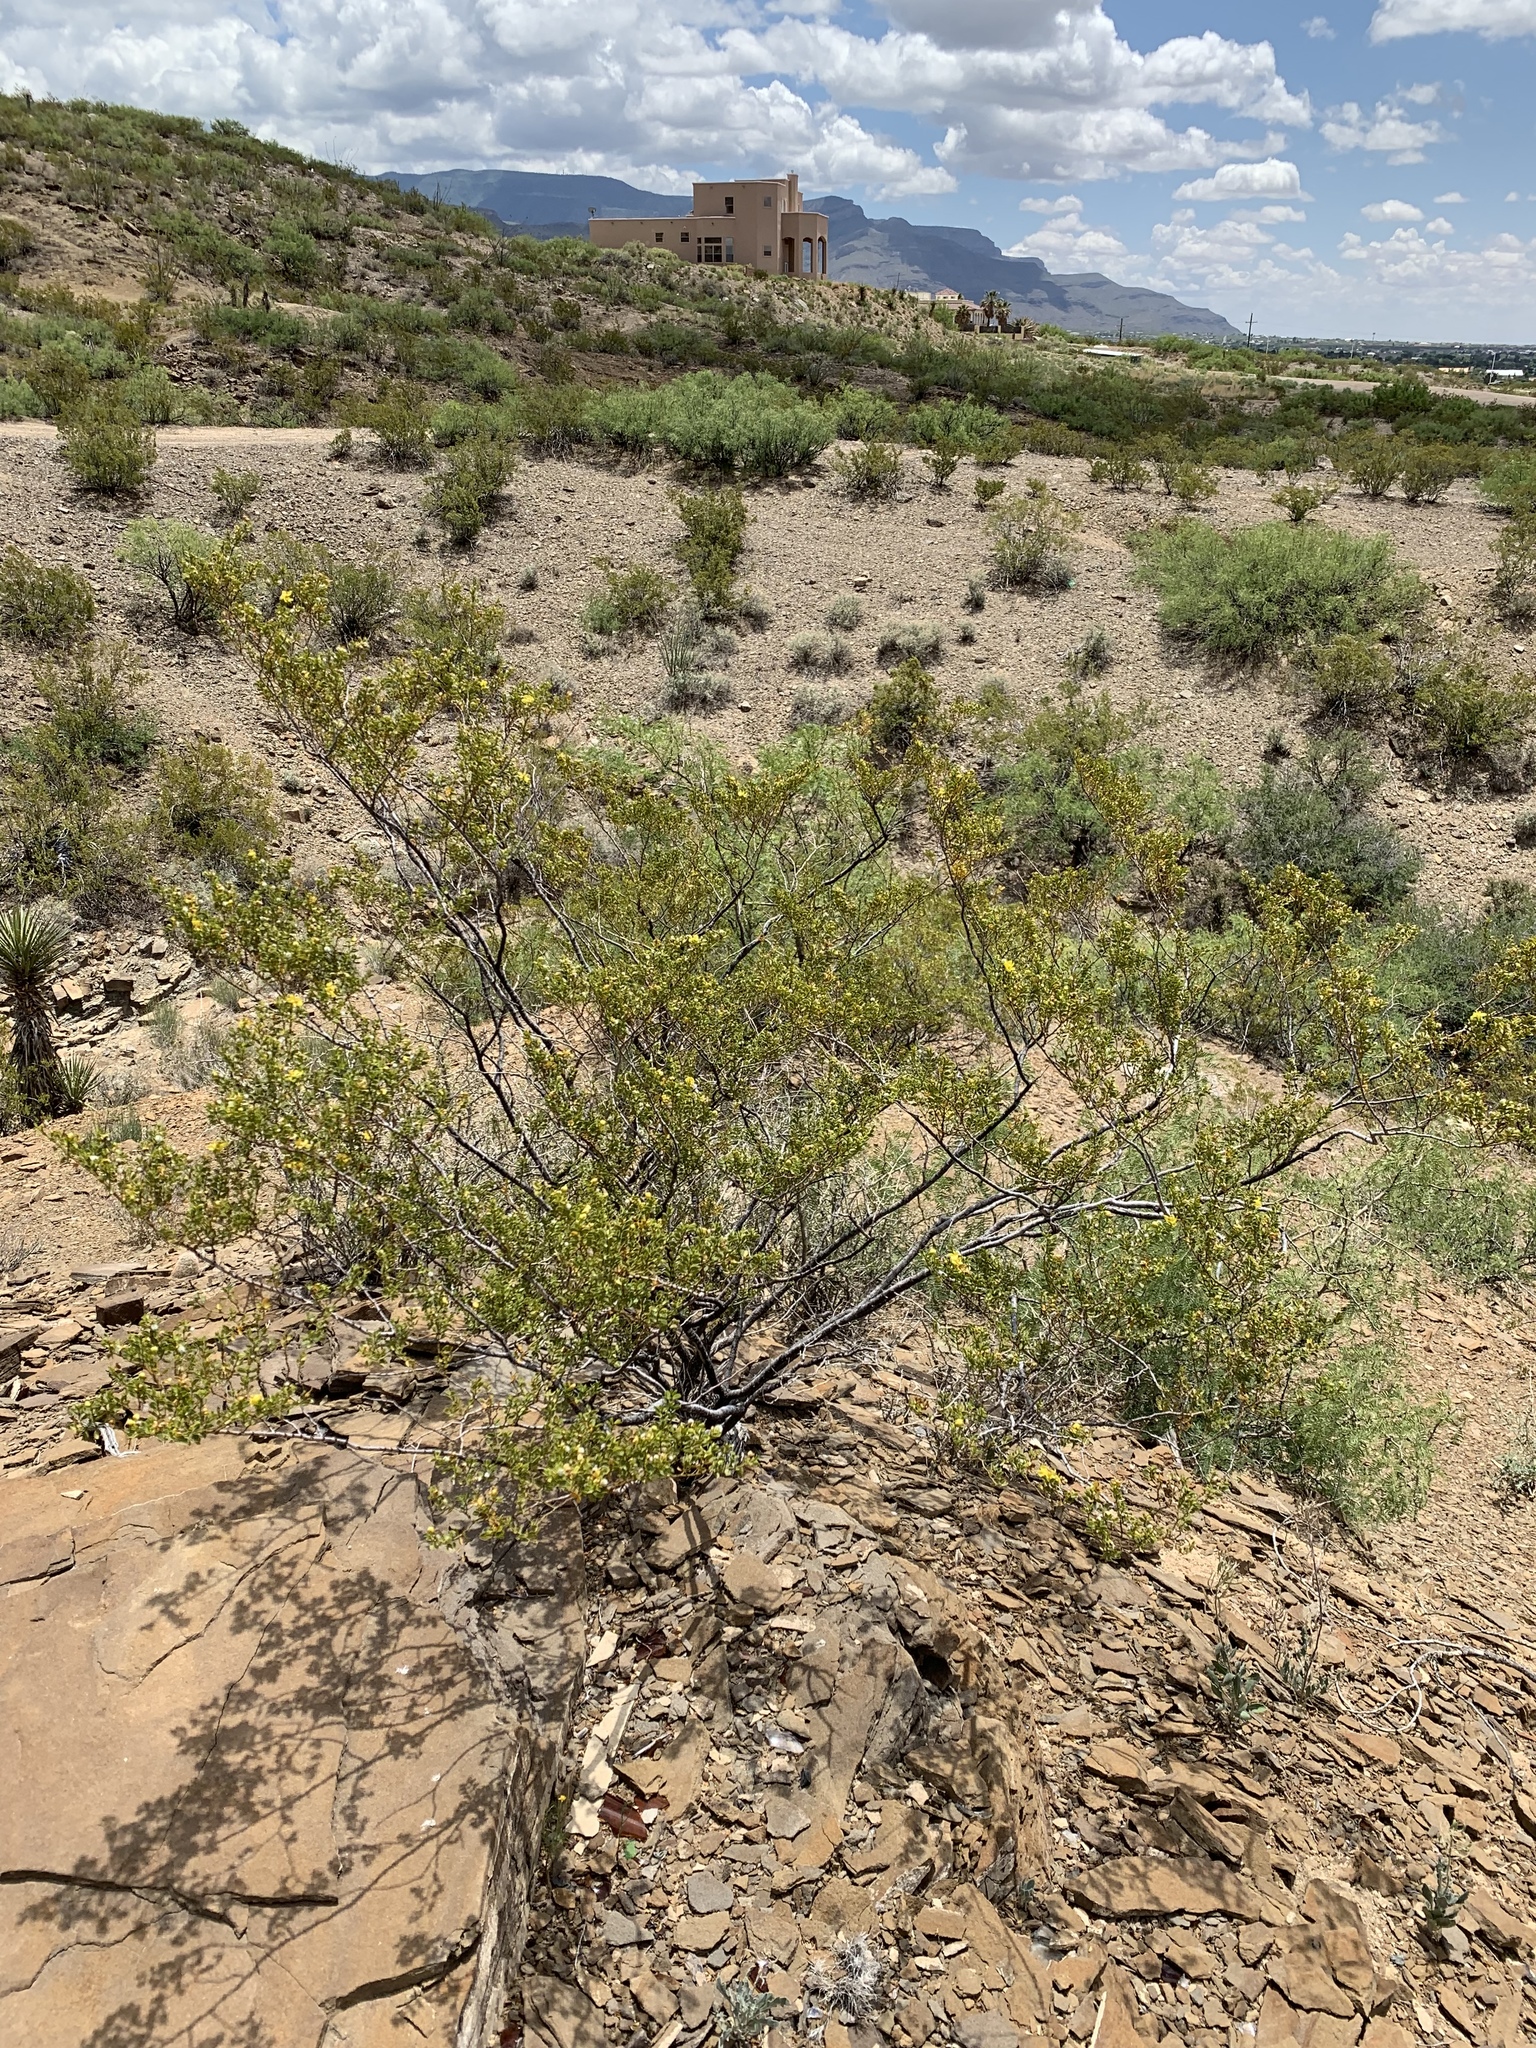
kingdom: Plantae
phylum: Tracheophyta
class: Magnoliopsida
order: Zygophyllales
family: Zygophyllaceae
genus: Larrea
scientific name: Larrea tridentata
